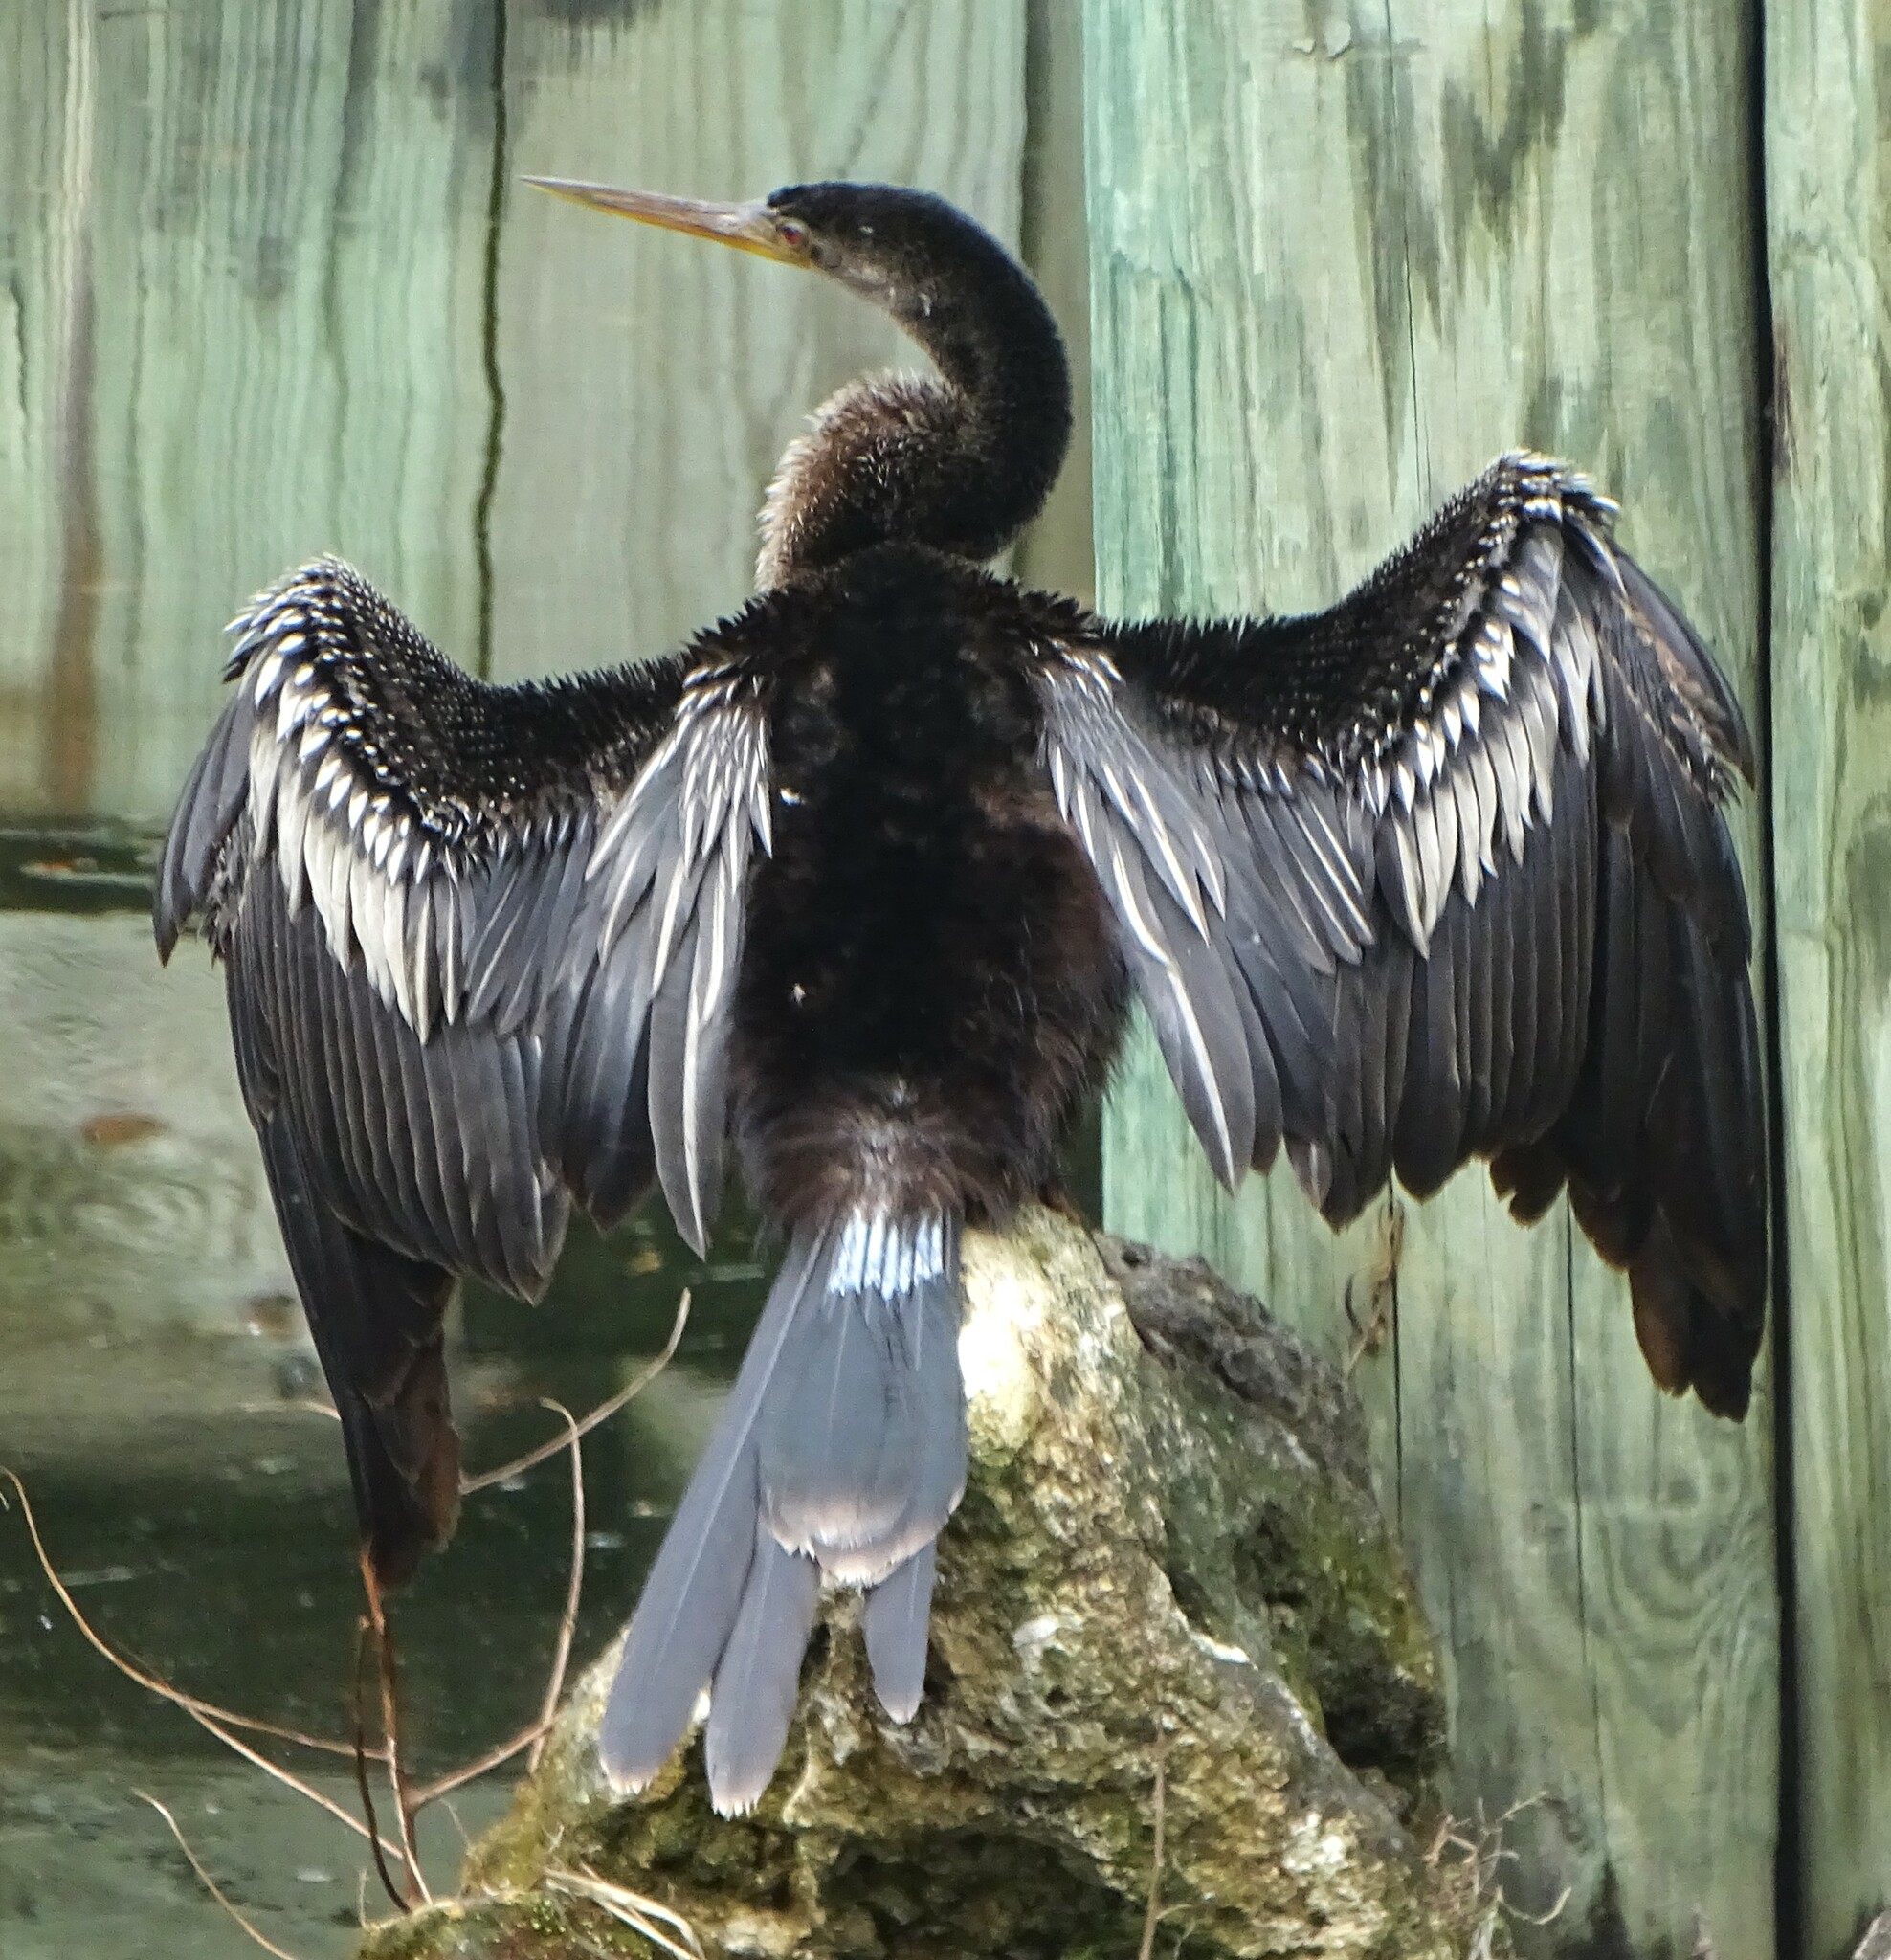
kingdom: Animalia
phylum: Chordata
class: Aves
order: Suliformes
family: Anhingidae
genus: Anhinga
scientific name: Anhinga anhinga
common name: Anhinga
